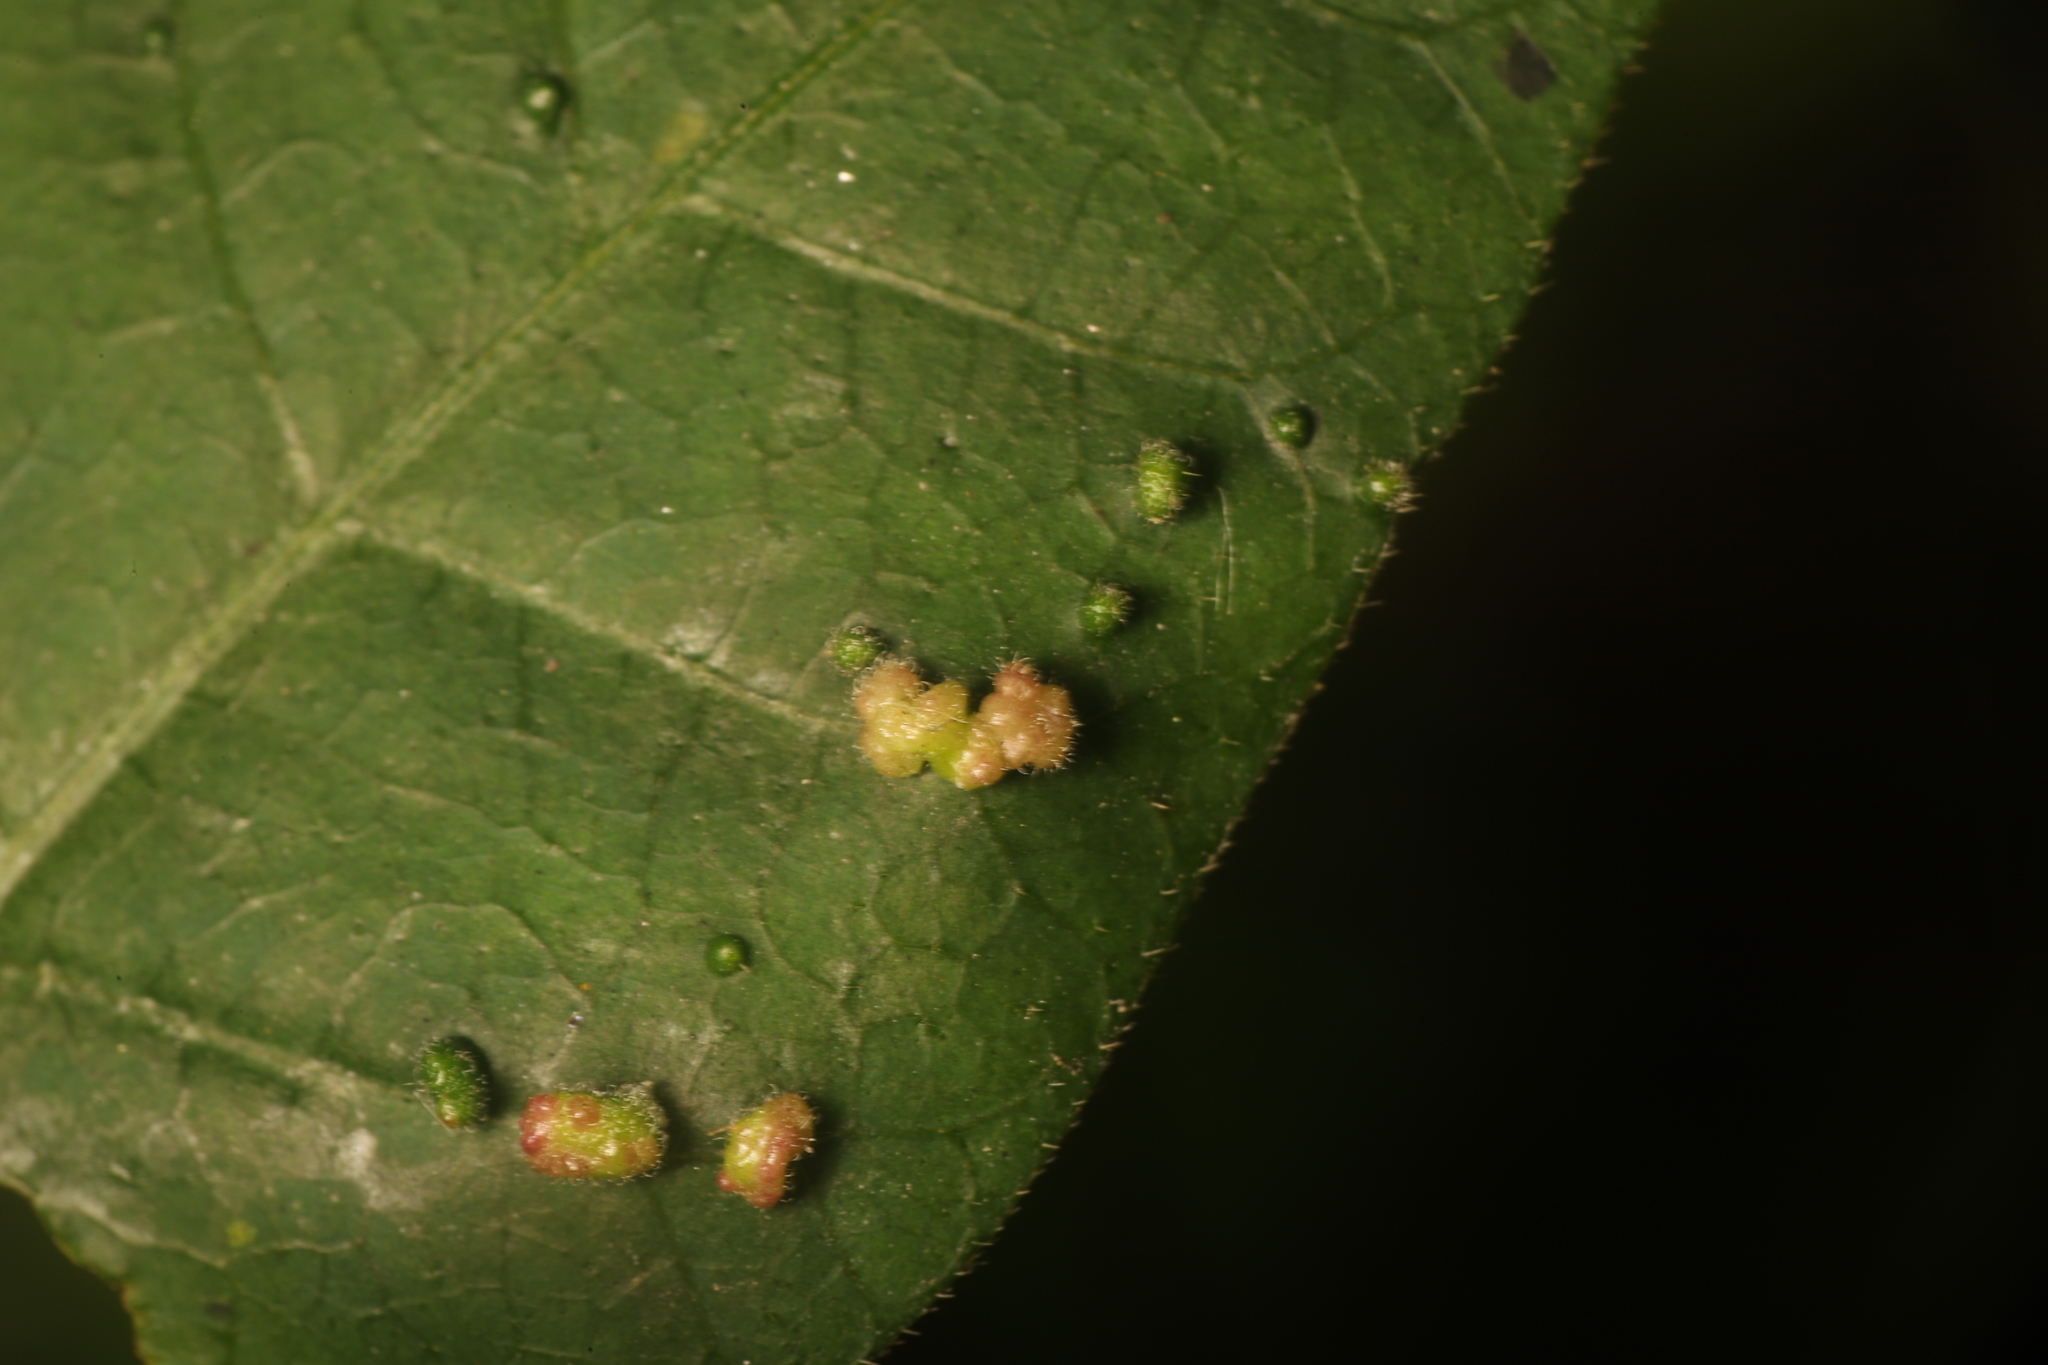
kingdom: Animalia
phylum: Arthropoda
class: Arachnida
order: Trombidiformes
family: Eriophyidae
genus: Aculops
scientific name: Aculops
